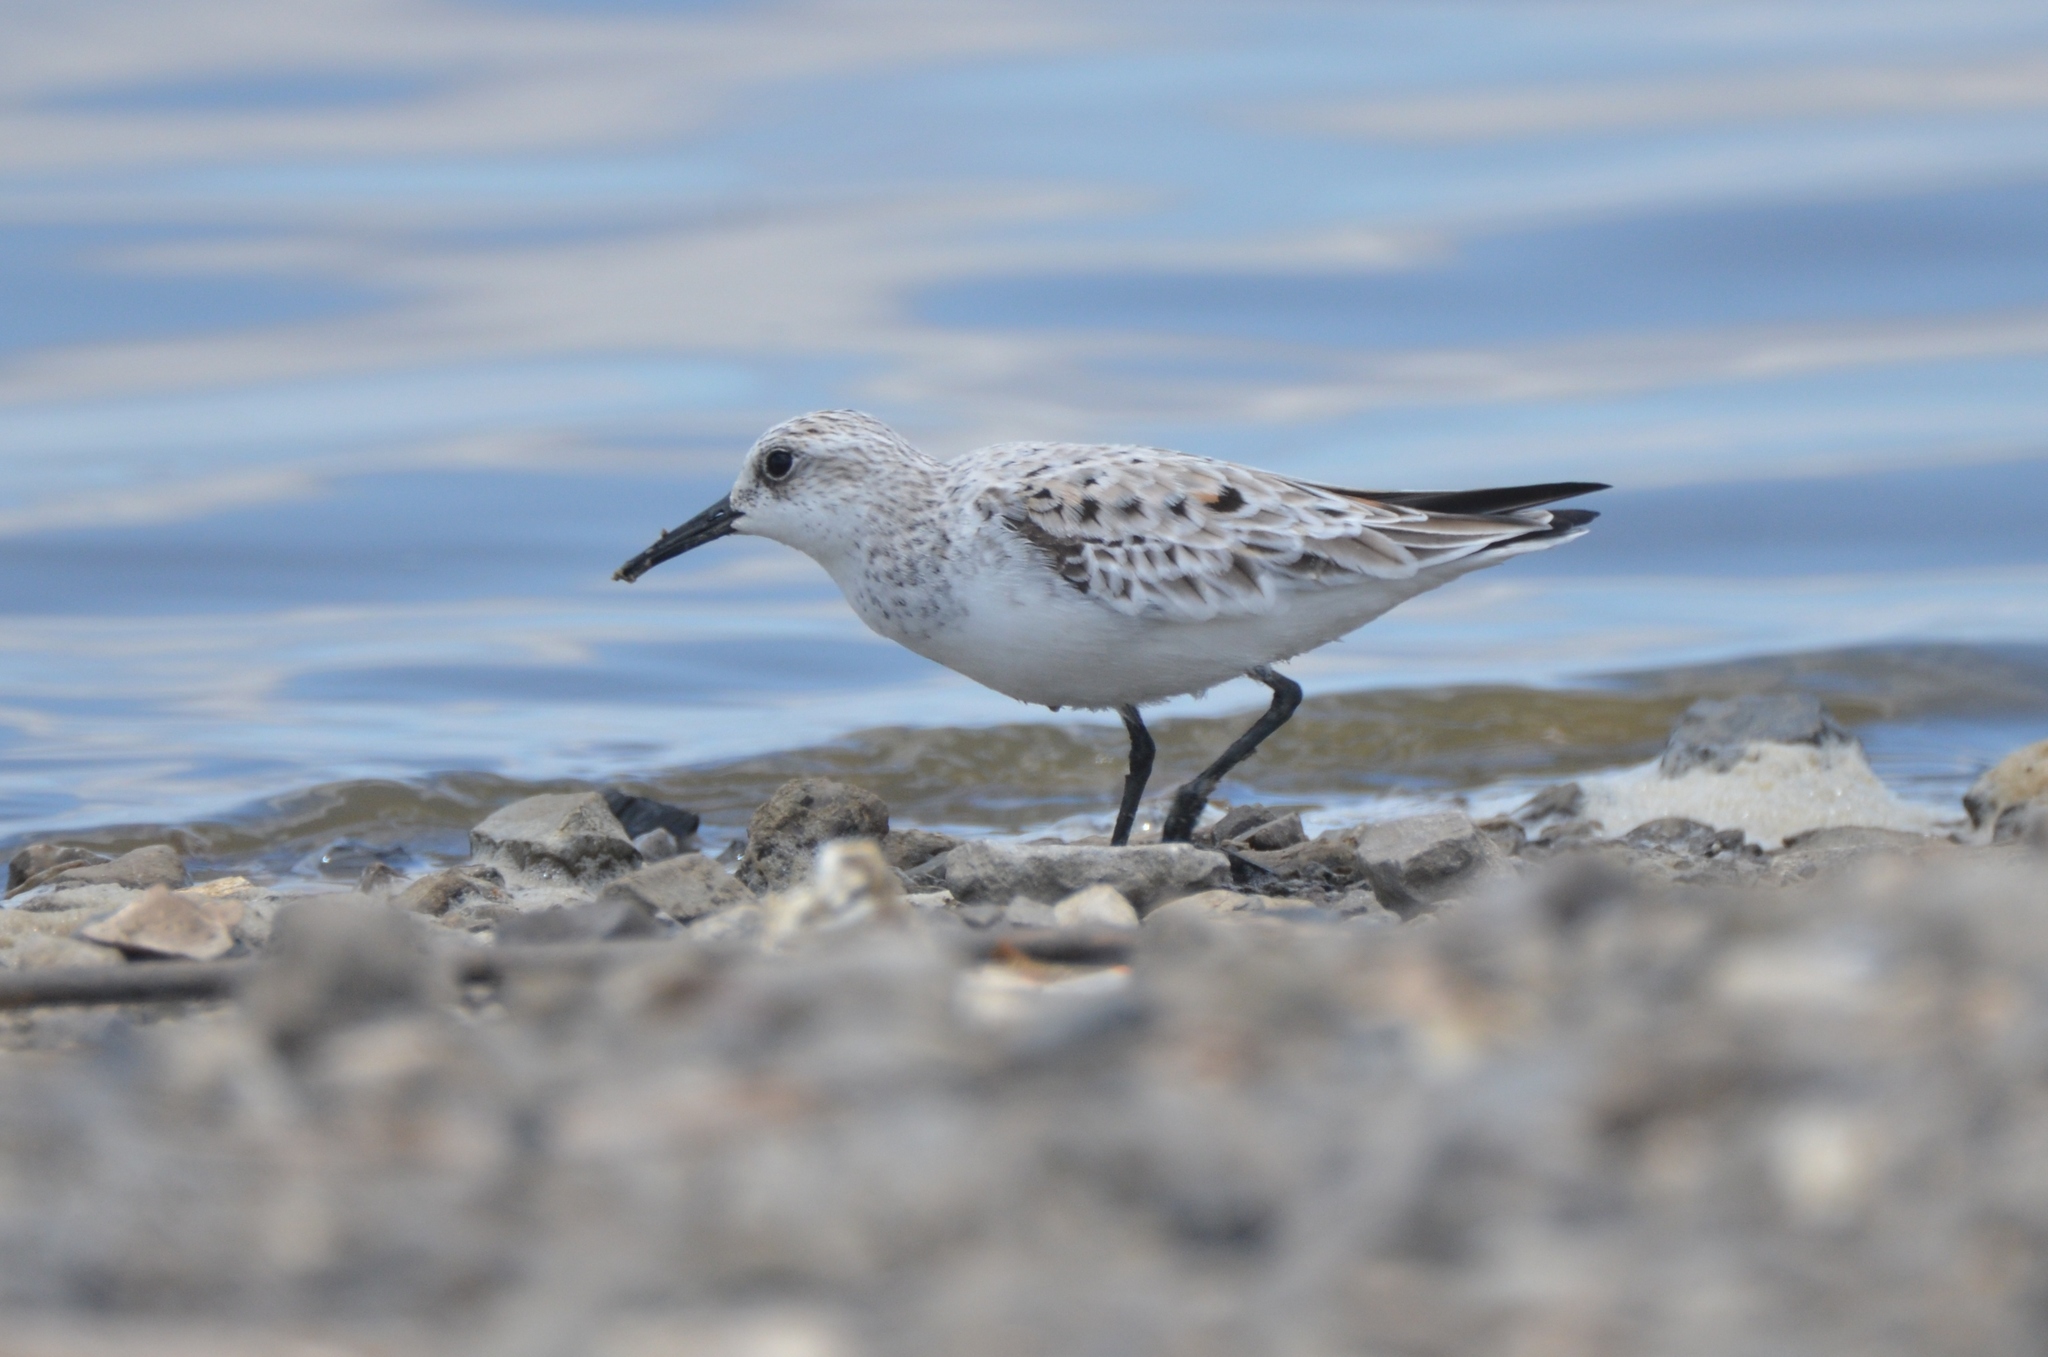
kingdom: Animalia
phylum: Chordata
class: Aves
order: Charadriiformes
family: Scolopacidae
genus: Calidris
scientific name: Calidris alba
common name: Sanderling
